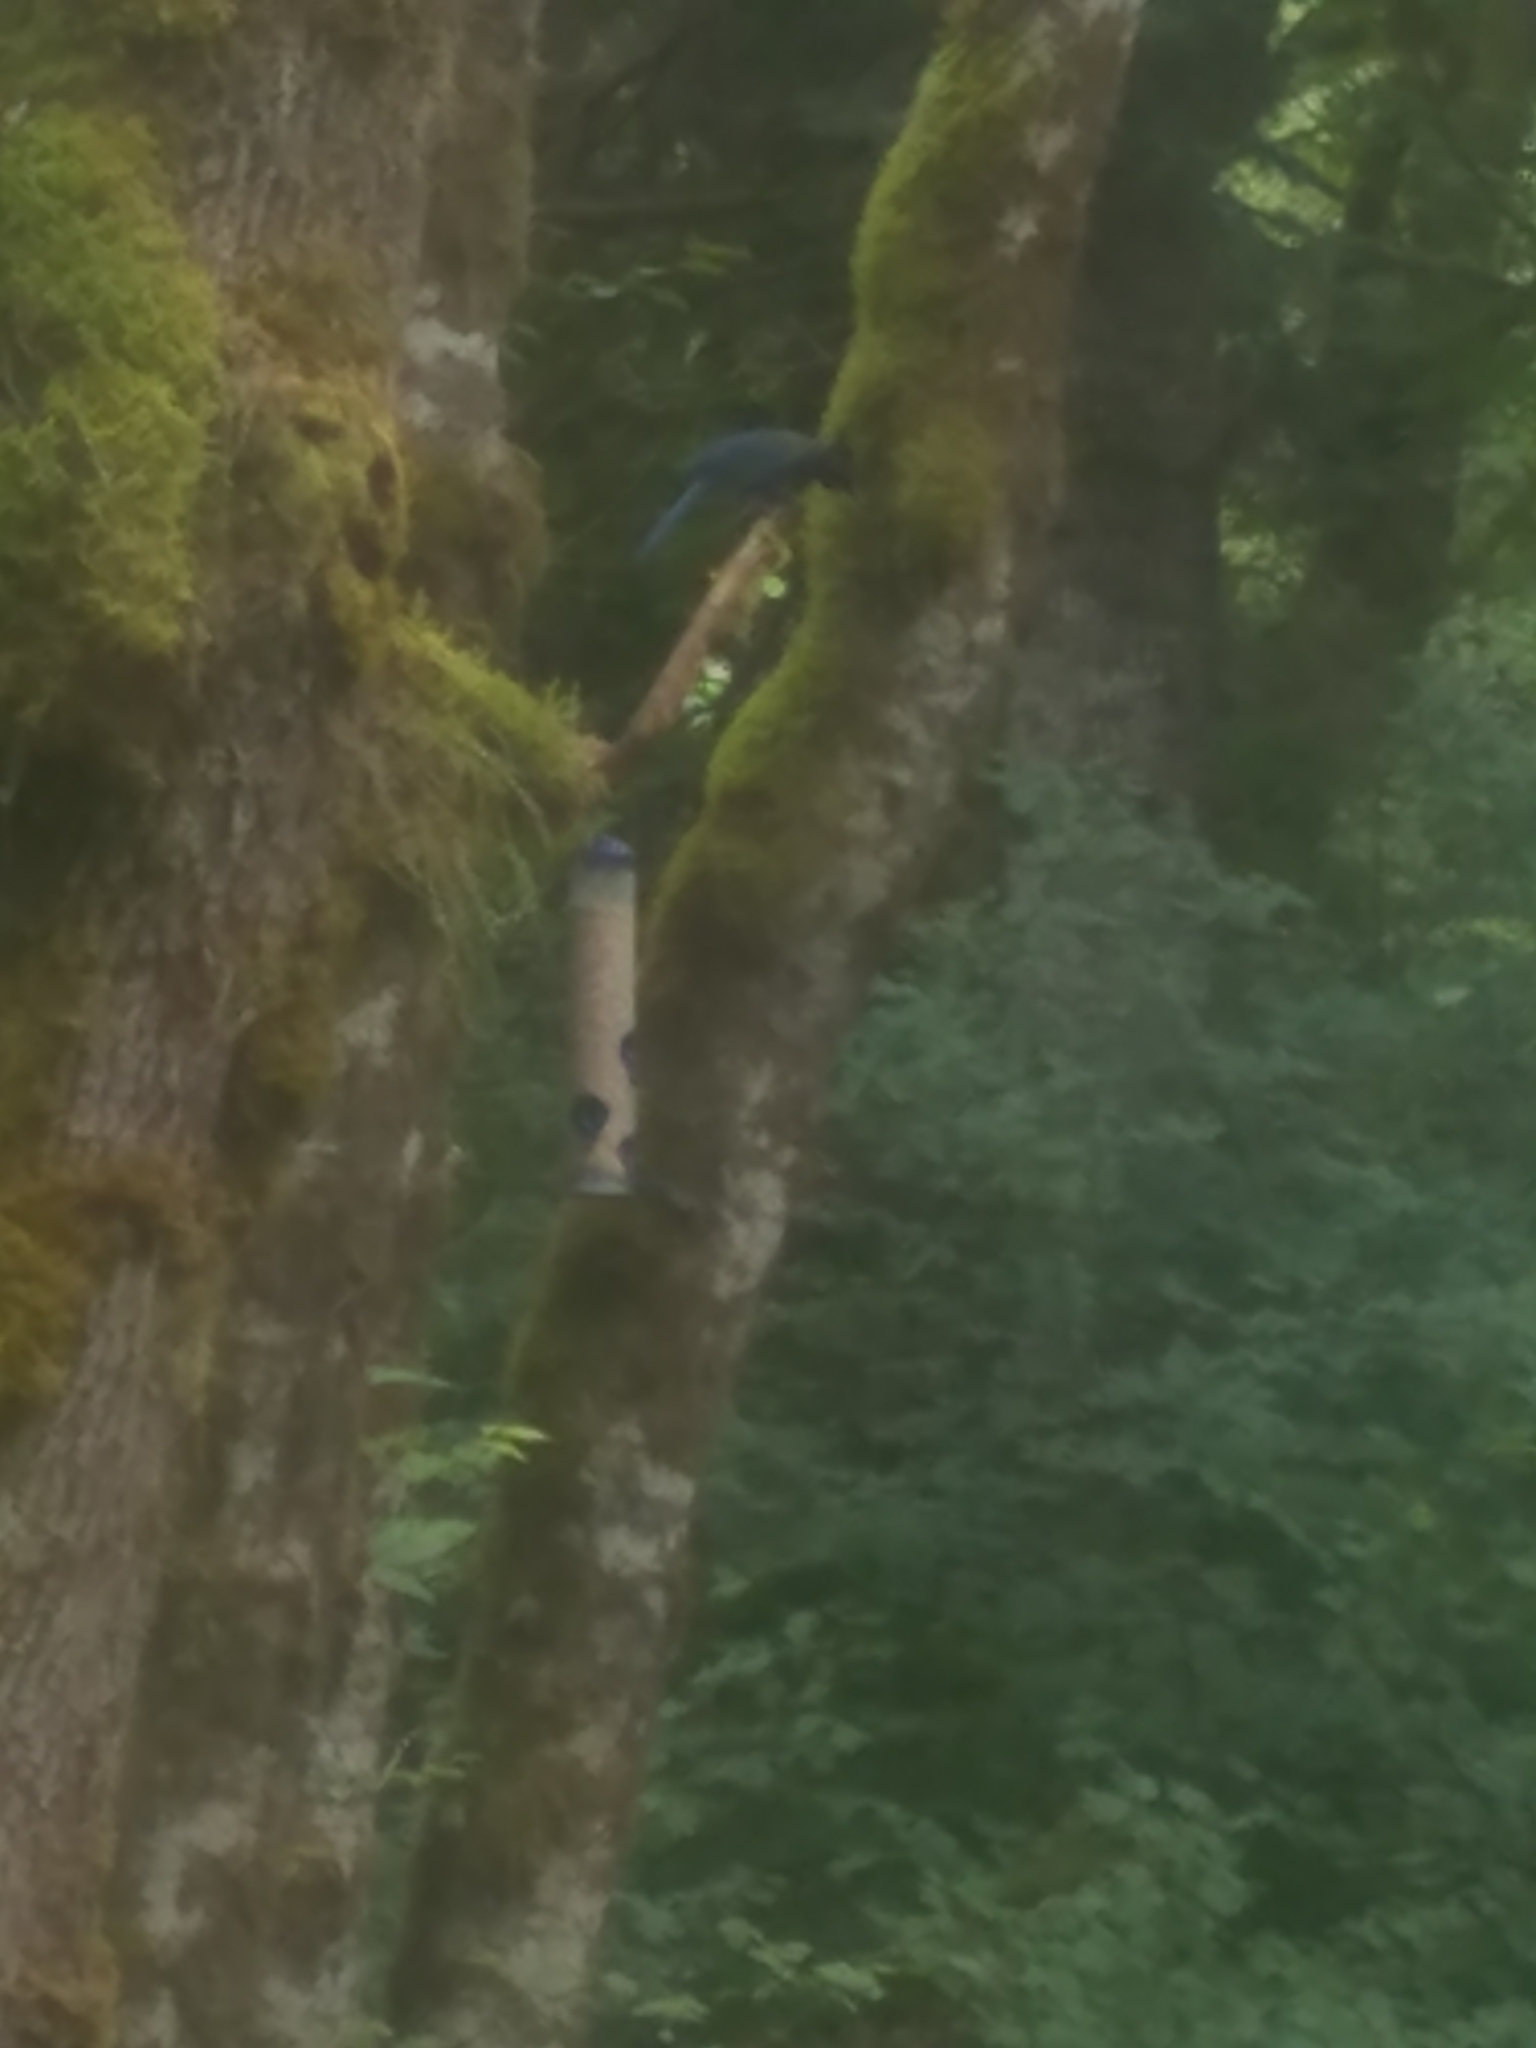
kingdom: Animalia
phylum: Chordata
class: Aves
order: Passeriformes
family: Corvidae
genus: Cyanocitta
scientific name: Cyanocitta stelleri
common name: Steller's jay
